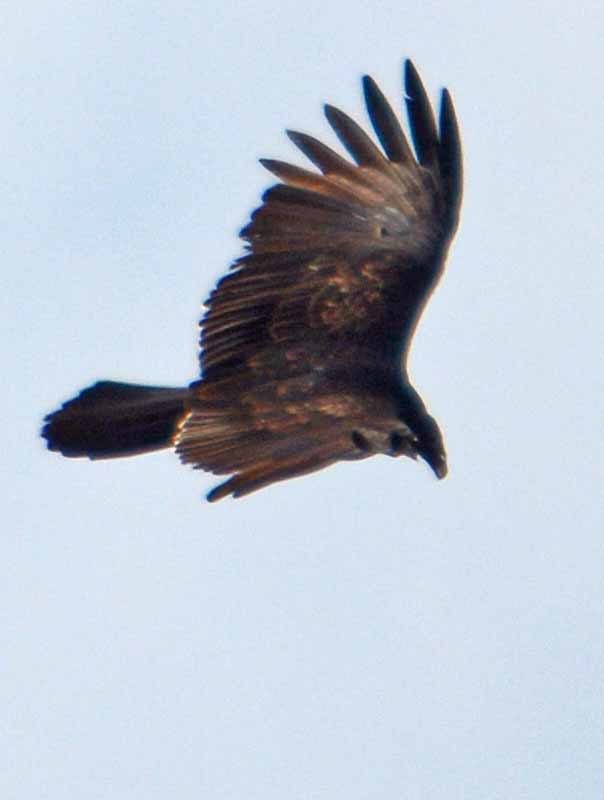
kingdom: Animalia
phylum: Chordata
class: Aves
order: Accipitriformes
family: Cathartidae
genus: Cathartes
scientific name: Cathartes aura
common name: Turkey vulture
